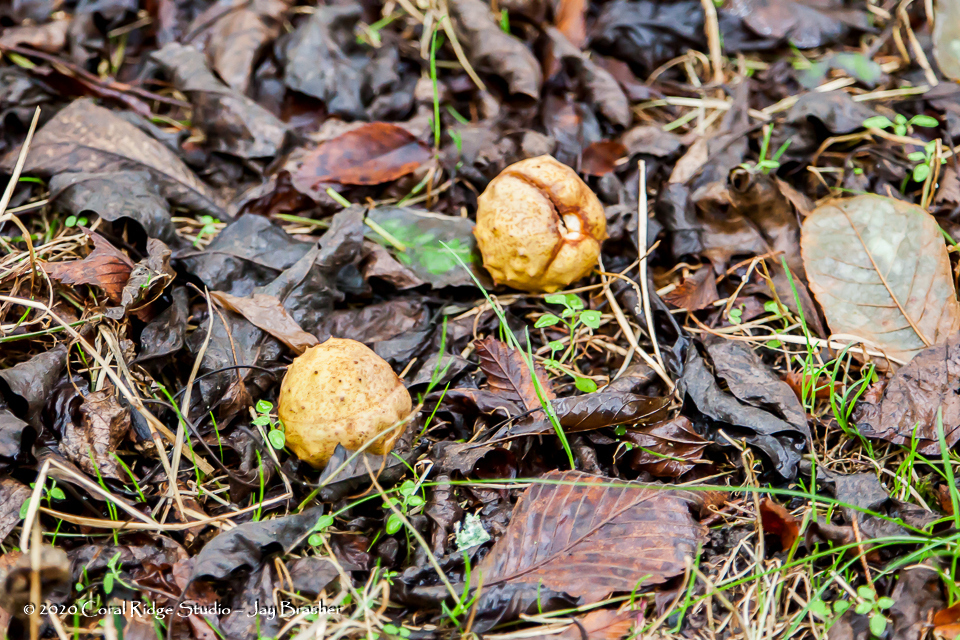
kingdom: Plantae
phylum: Tracheophyta
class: Magnoliopsida
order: Sapindales
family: Sapindaceae
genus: Aesculus
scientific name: Aesculus glabra
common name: Ohio buckeye
